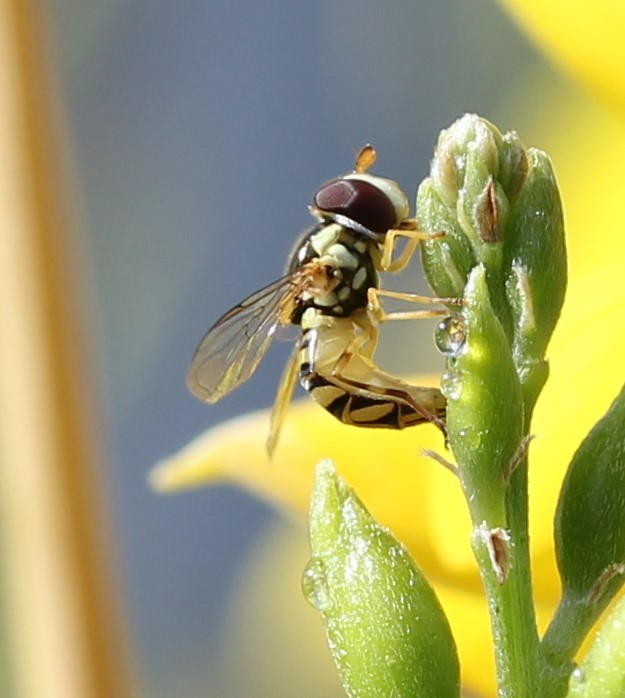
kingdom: Animalia
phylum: Arthropoda
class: Insecta
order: Diptera
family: Syrphidae
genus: Allograpta
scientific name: Allograpta obliqua
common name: Common oblique syrphid
